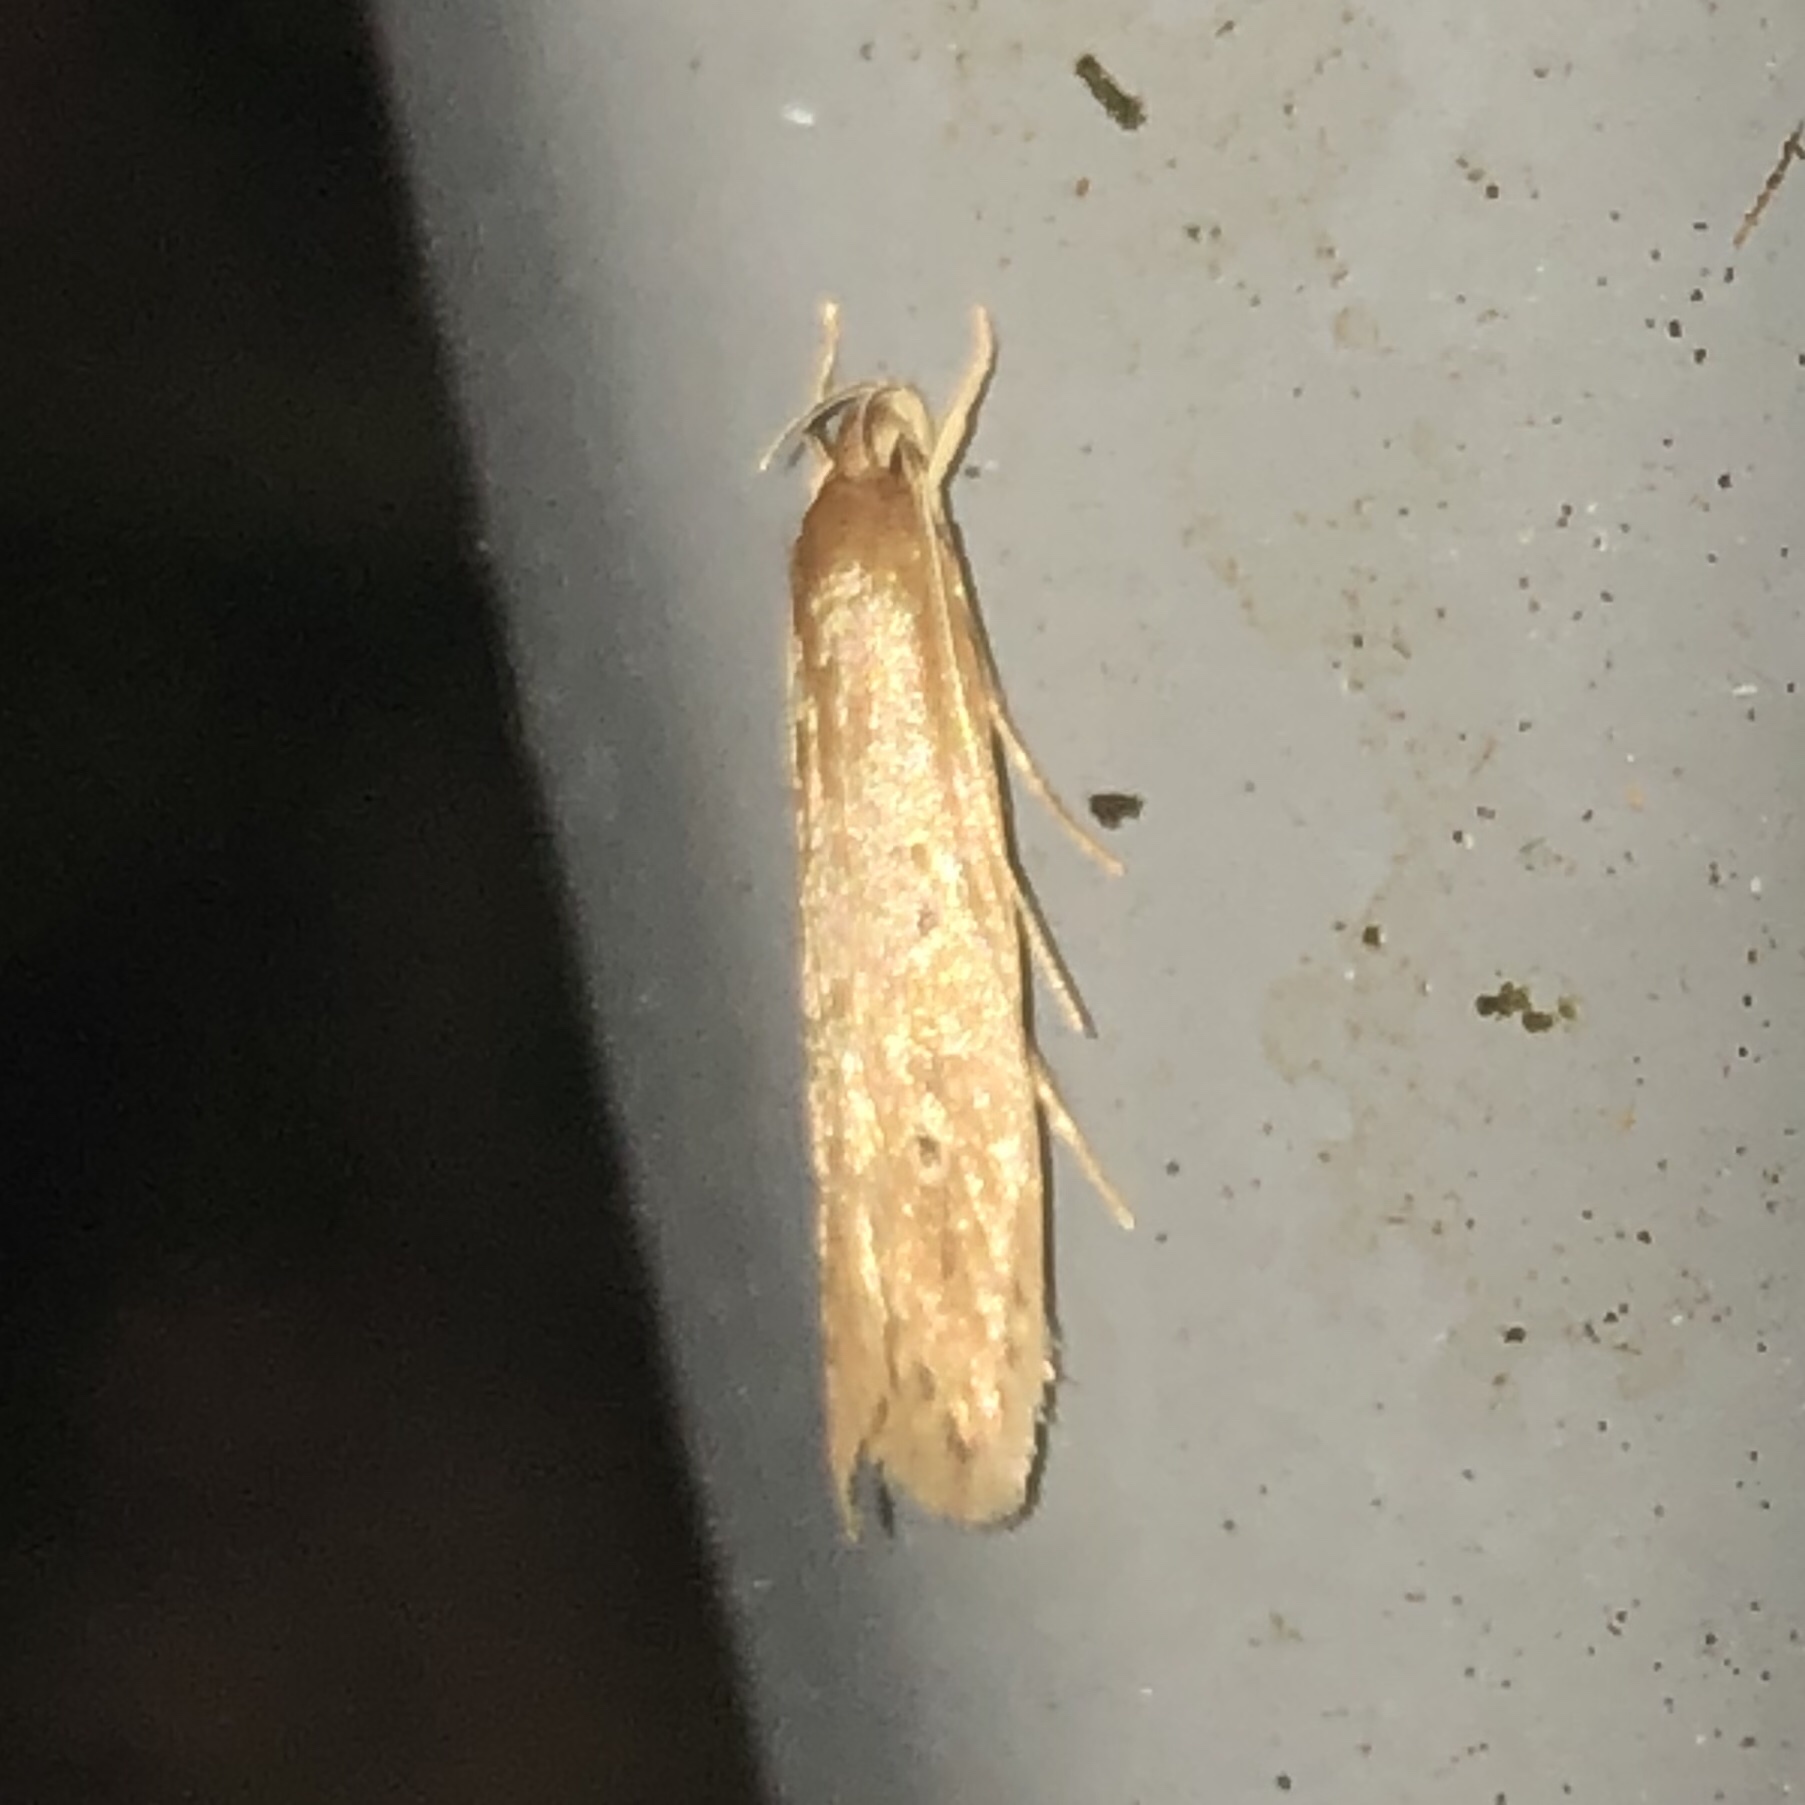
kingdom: Animalia
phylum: Arthropoda
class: Insecta
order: Lepidoptera
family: Cosmopterigidae
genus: Limnaecia
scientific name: Limnaecia phragmitella
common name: Bulrush cosmet
